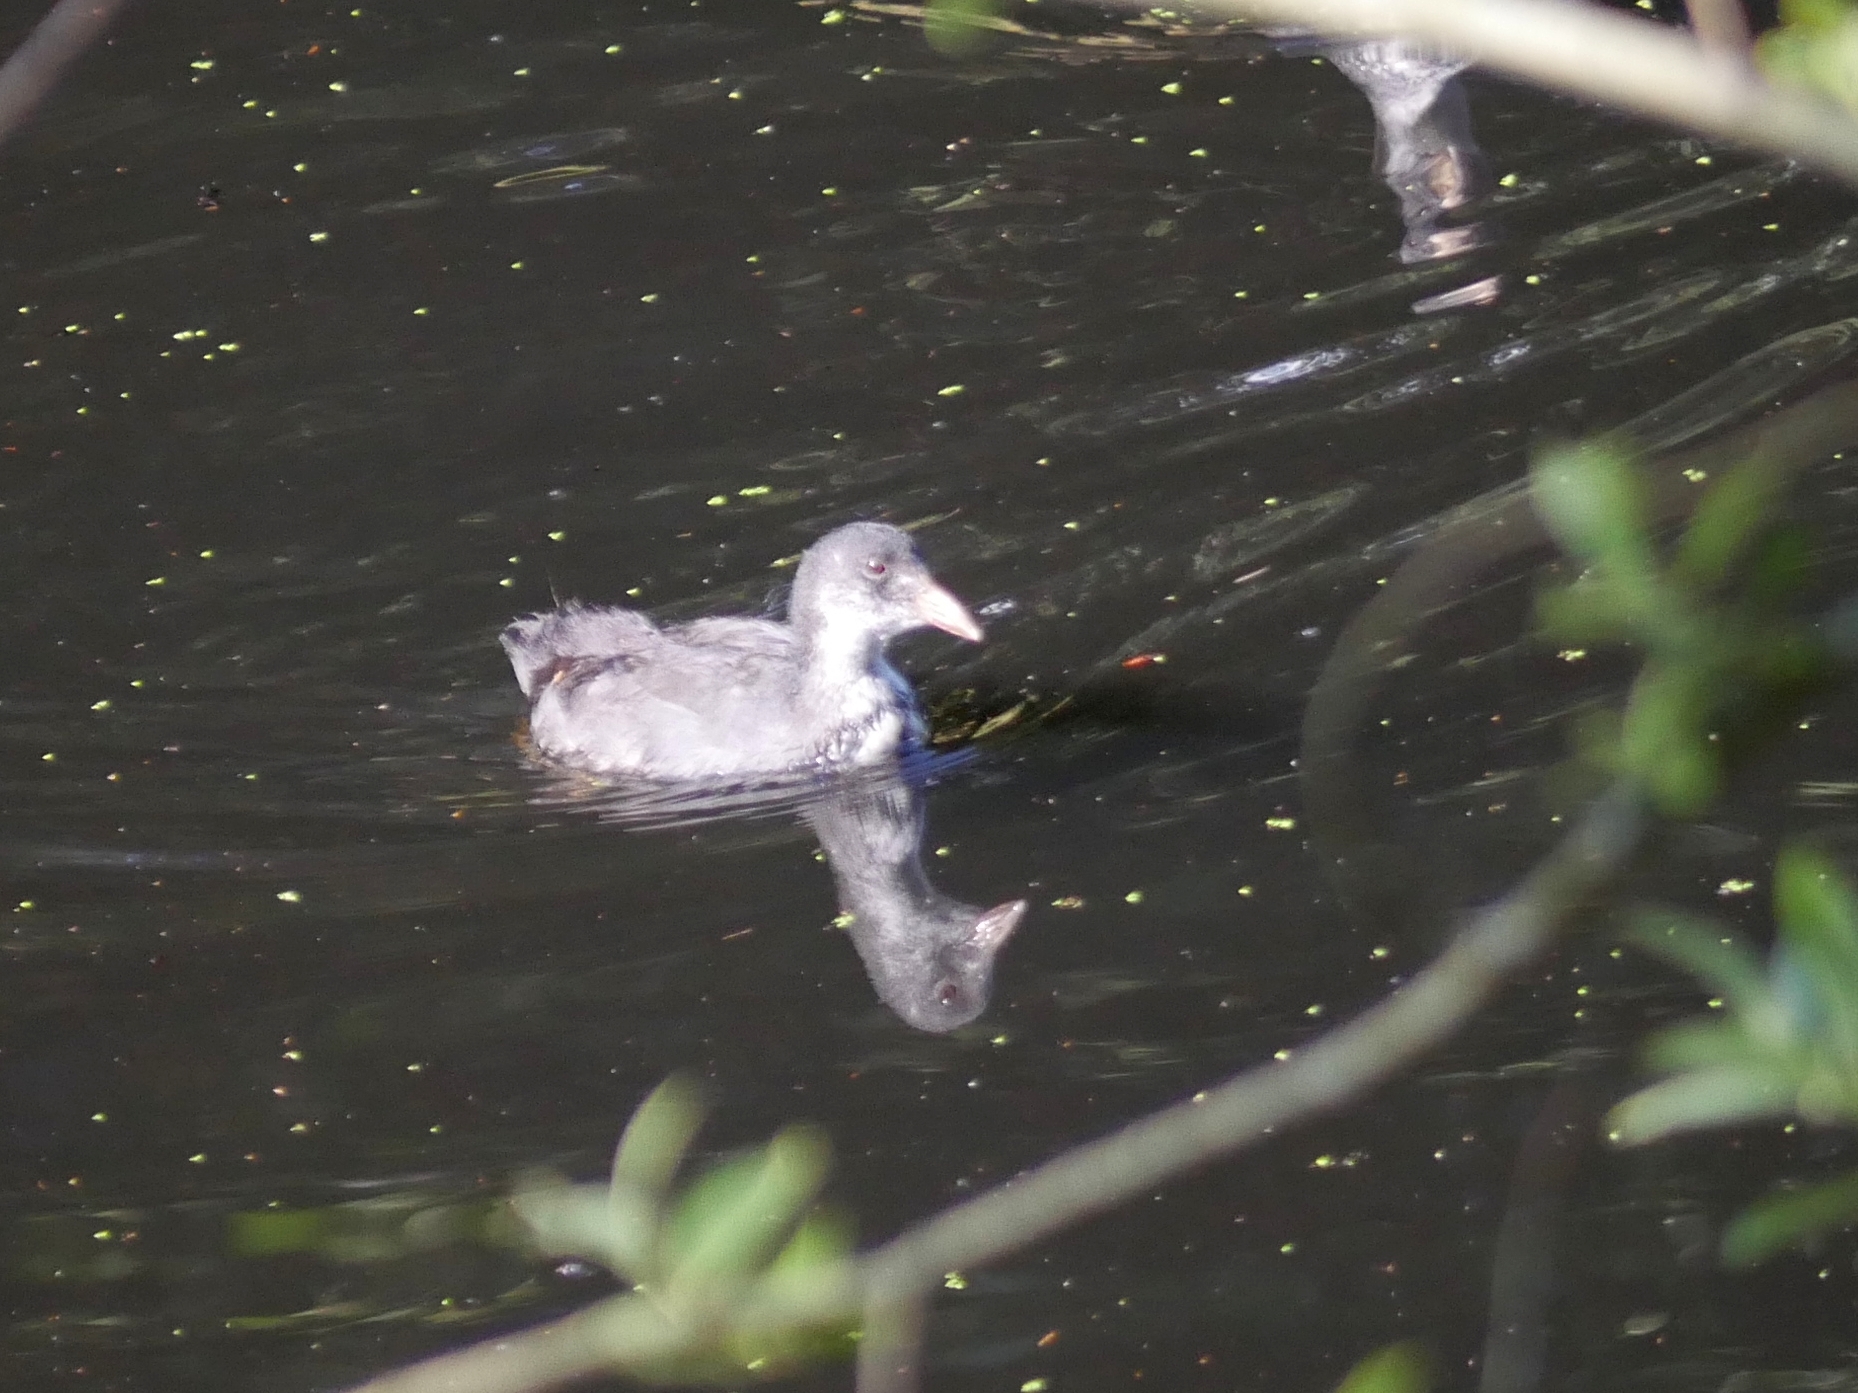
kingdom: Animalia
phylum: Chordata
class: Aves
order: Gruiformes
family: Rallidae
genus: Fulica
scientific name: Fulica atra
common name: Eurasian coot
